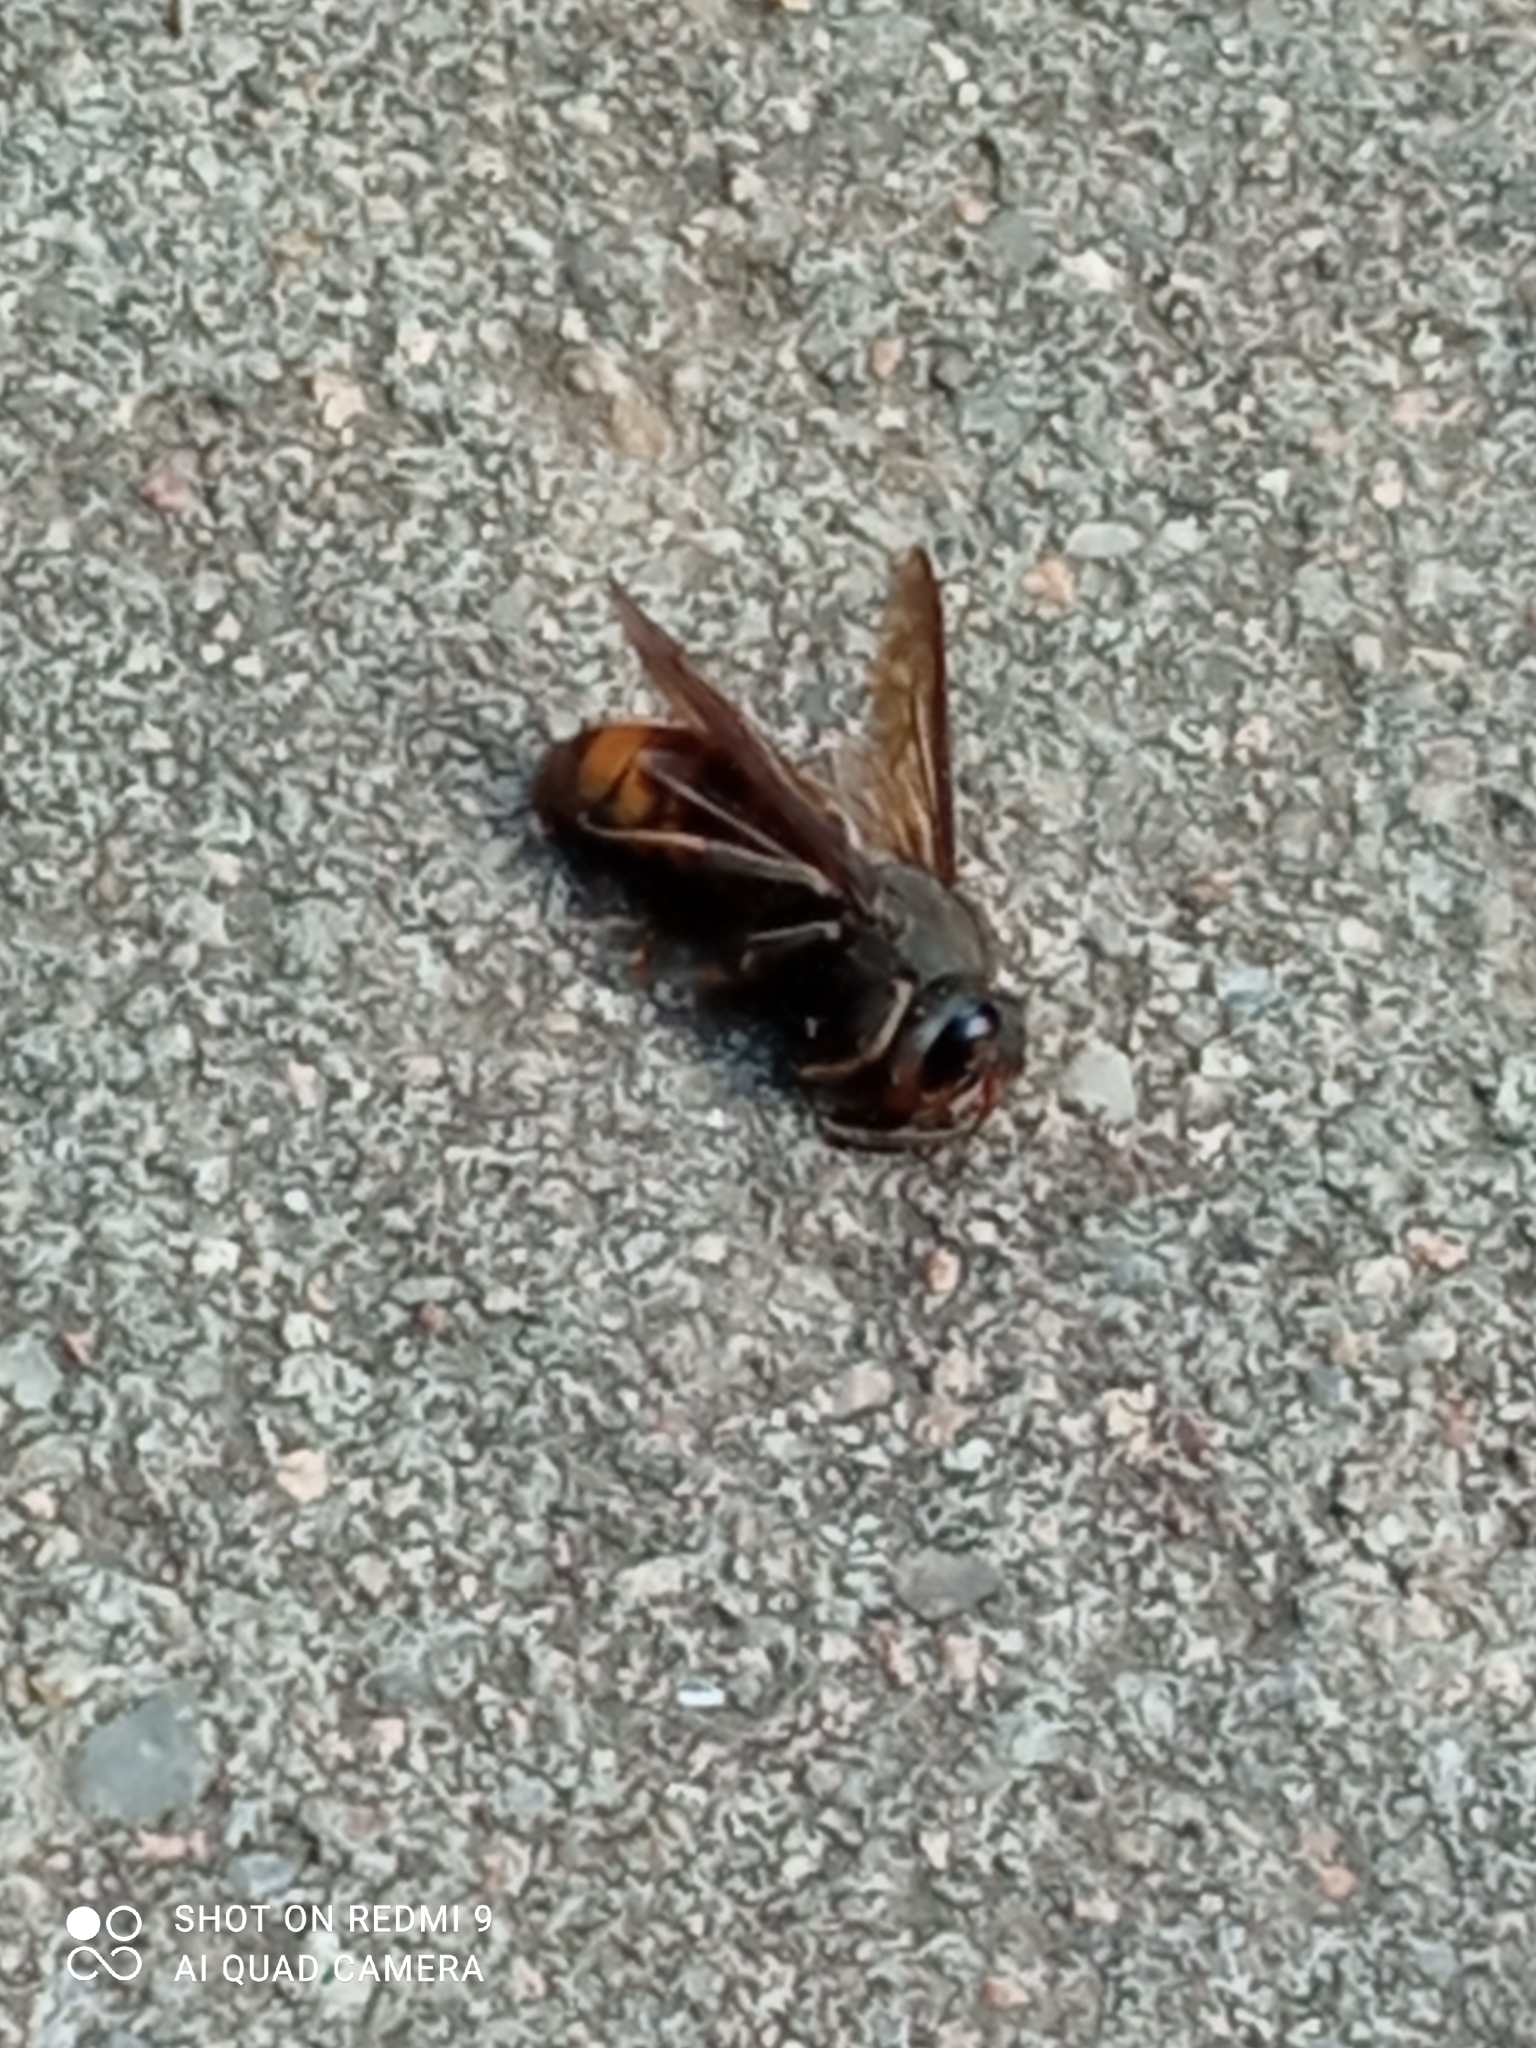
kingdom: Animalia
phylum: Arthropoda
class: Insecta
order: Hymenoptera
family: Vespidae
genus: Vespa
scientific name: Vespa velutina
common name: Asian hornet
